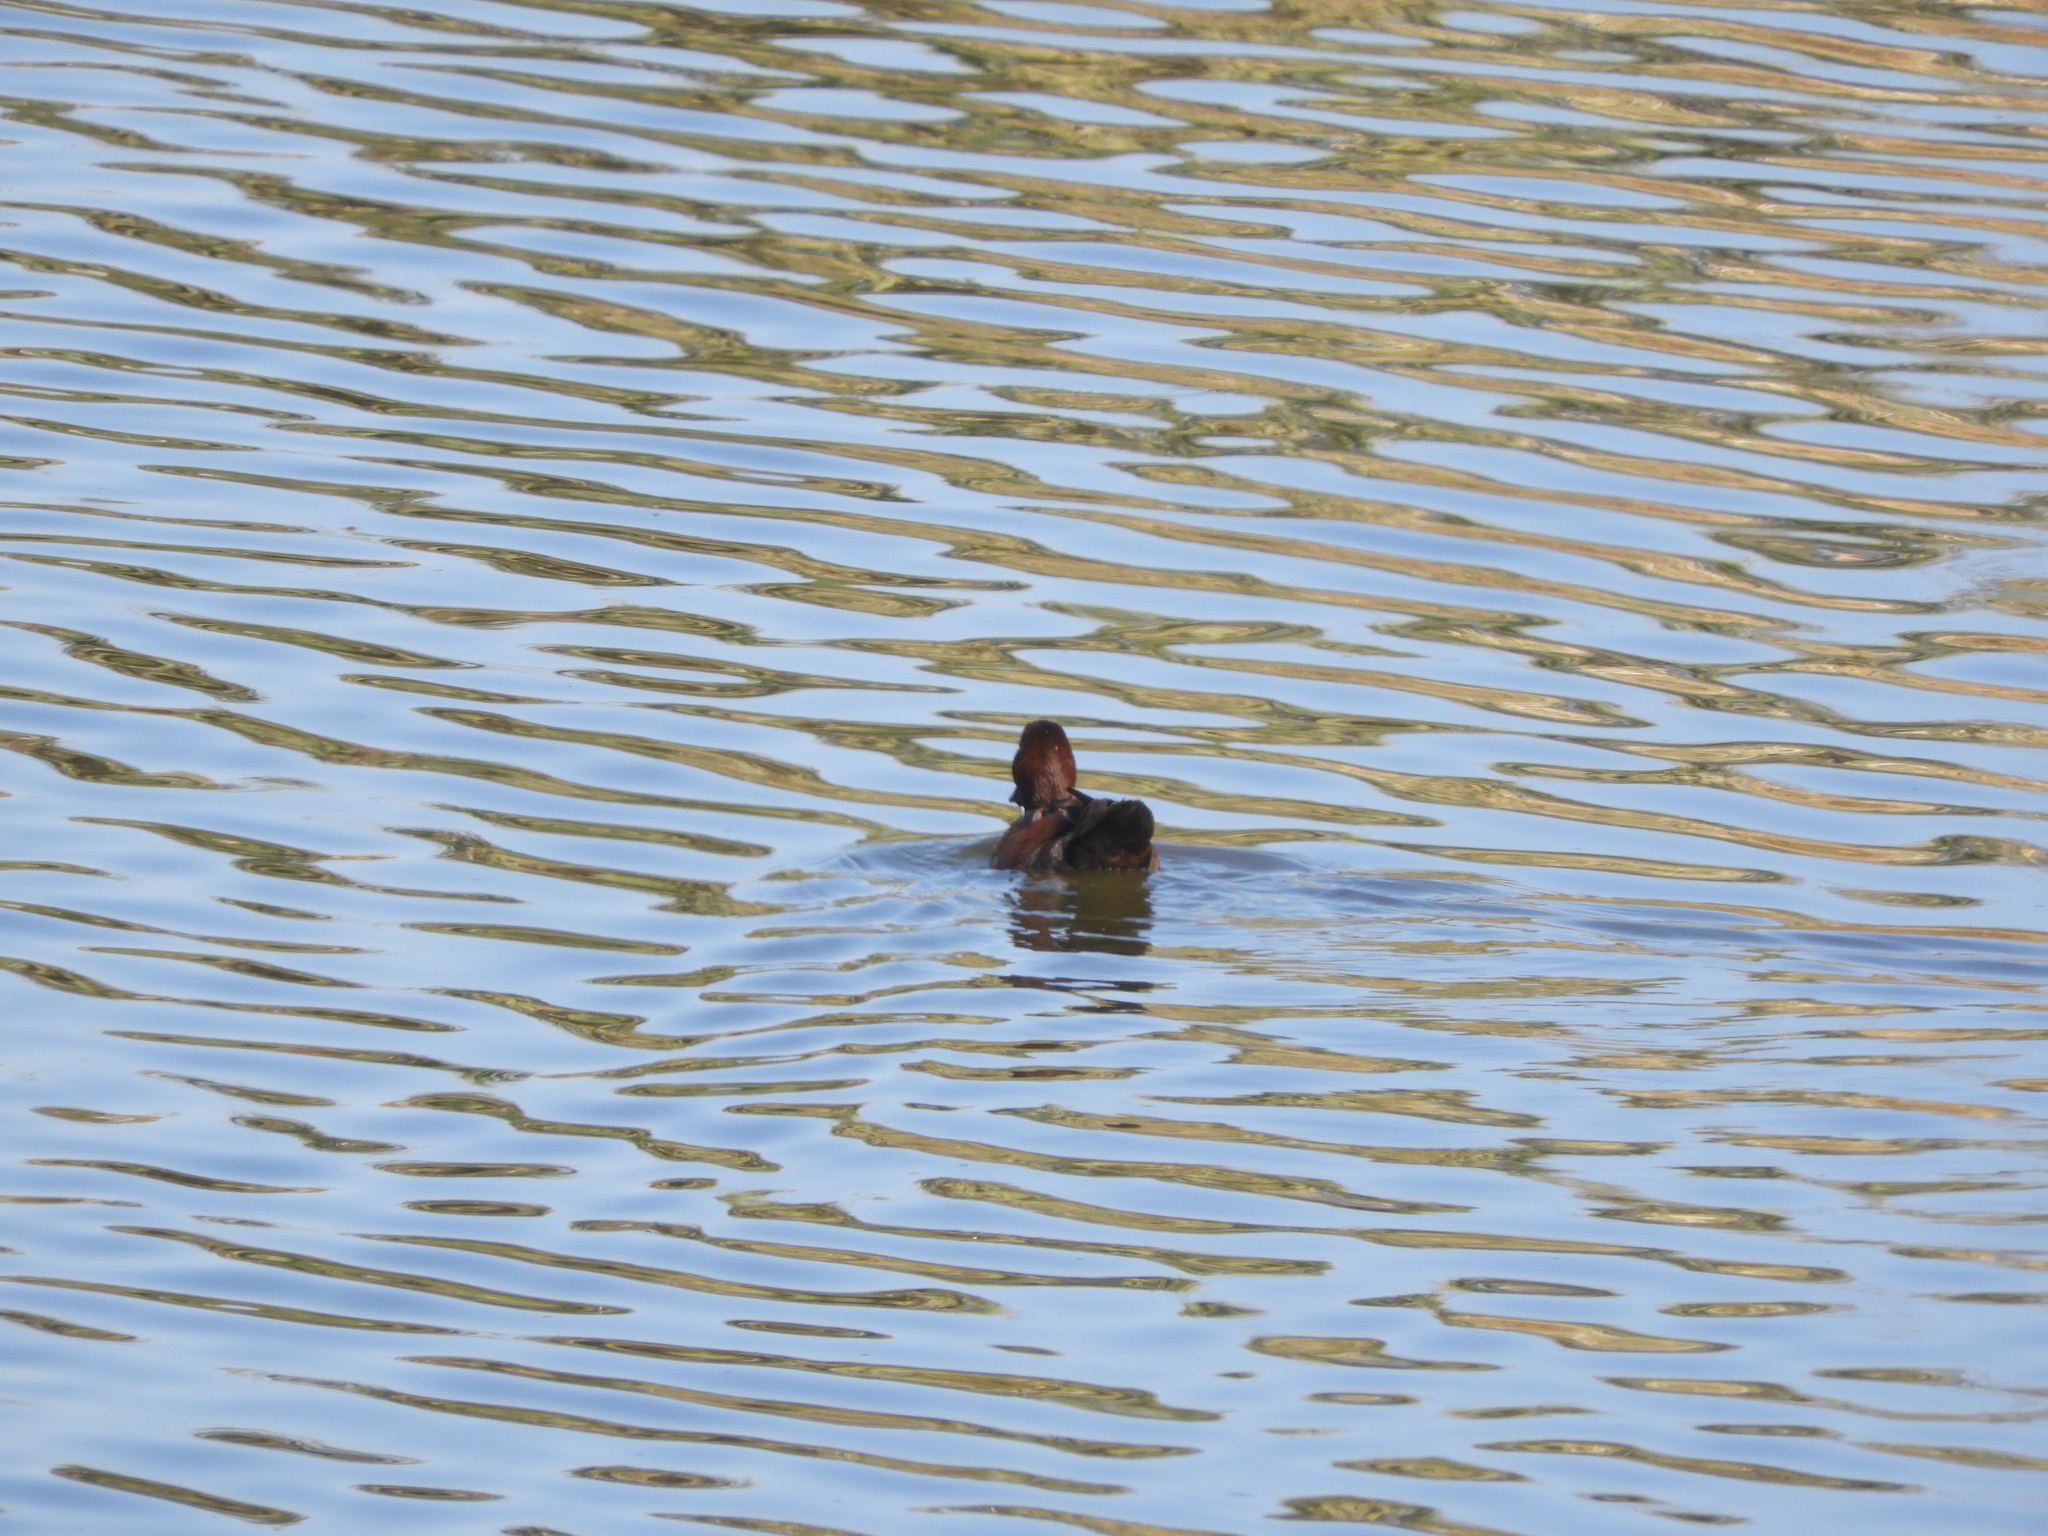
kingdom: Animalia
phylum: Chordata
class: Aves
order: Anseriformes
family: Anatidae
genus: Spatula
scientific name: Spatula cyanoptera
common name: Cinnamon teal
